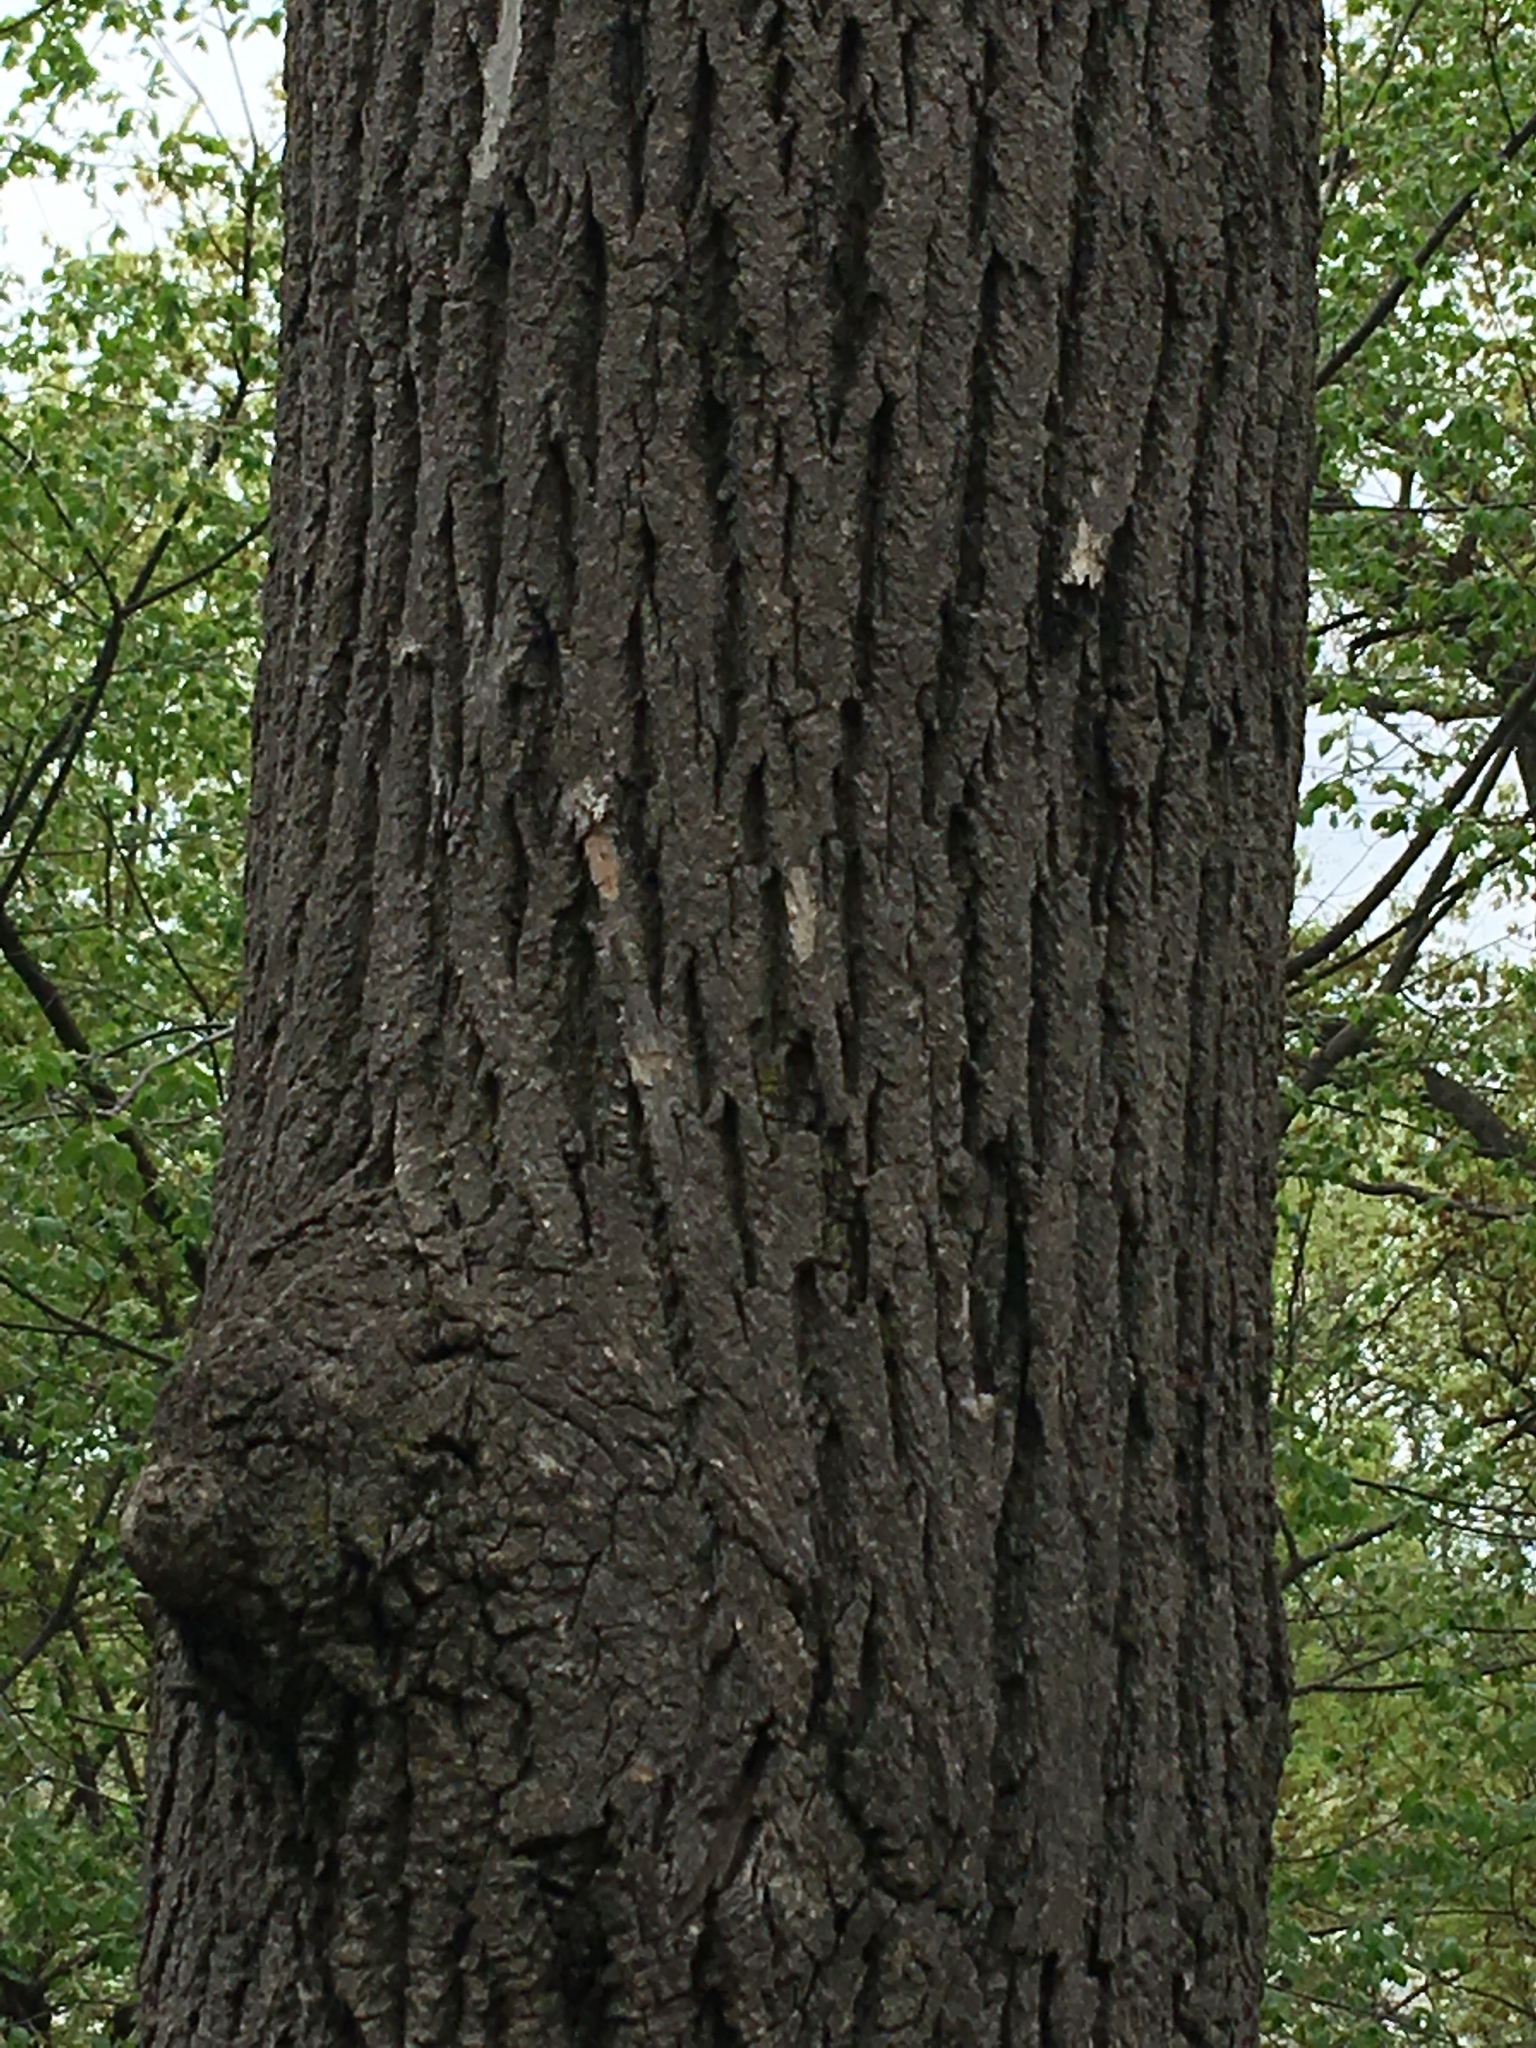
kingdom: Plantae
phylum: Tracheophyta
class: Magnoliopsida
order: Lamiales
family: Oleaceae
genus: Fraxinus
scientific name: Fraxinus americana
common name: White ash
